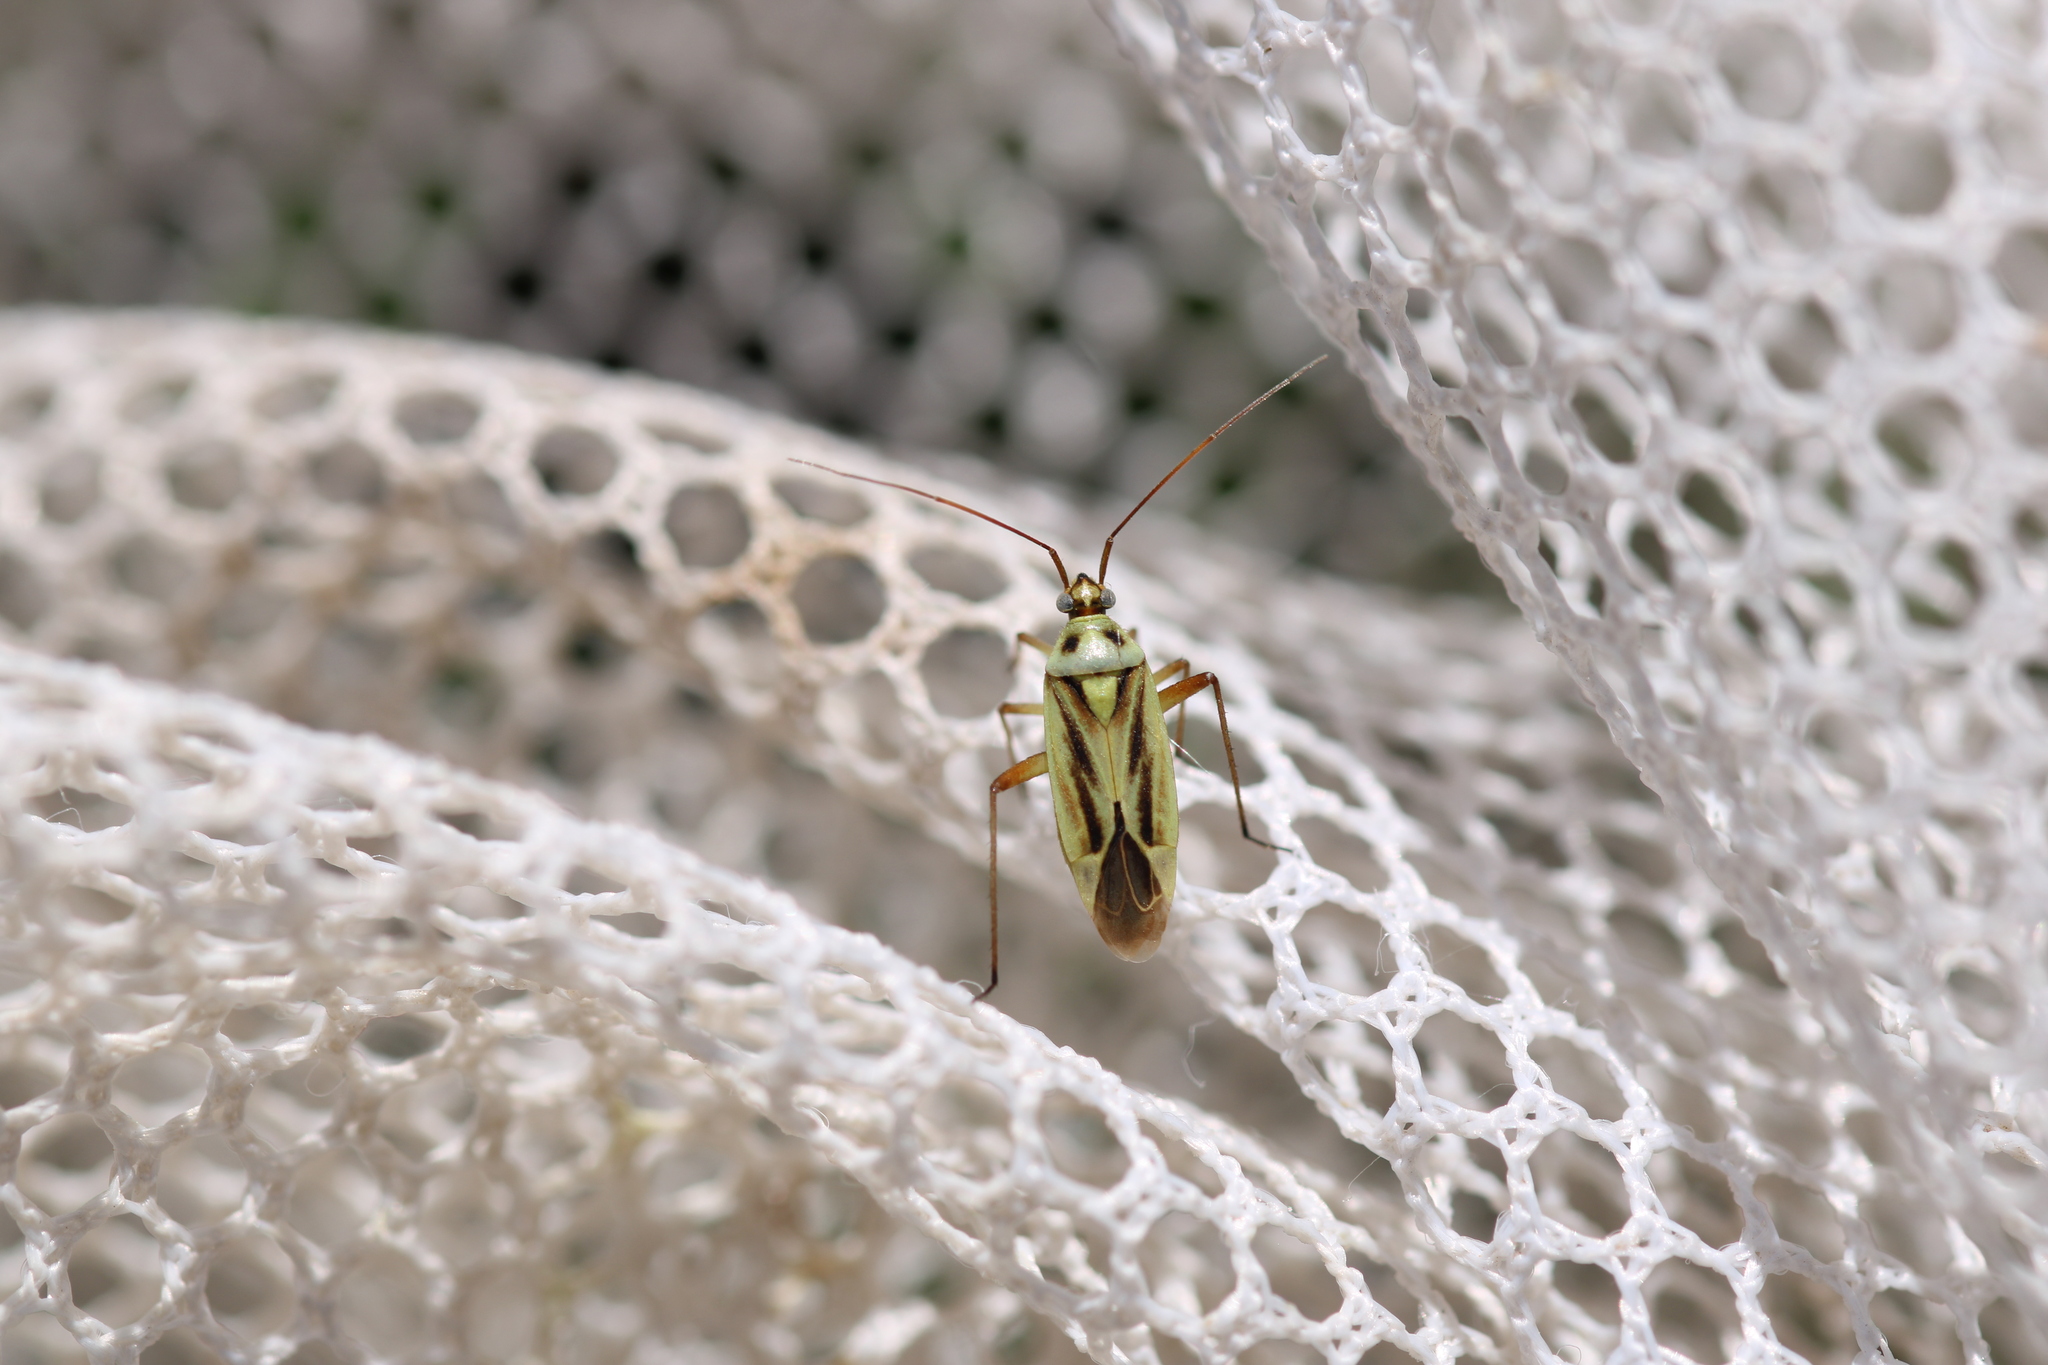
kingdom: Animalia
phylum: Arthropoda
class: Insecta
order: Hemiptera
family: Miridae
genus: Stenotus
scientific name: Stenotus binotatus
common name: Plant bug
